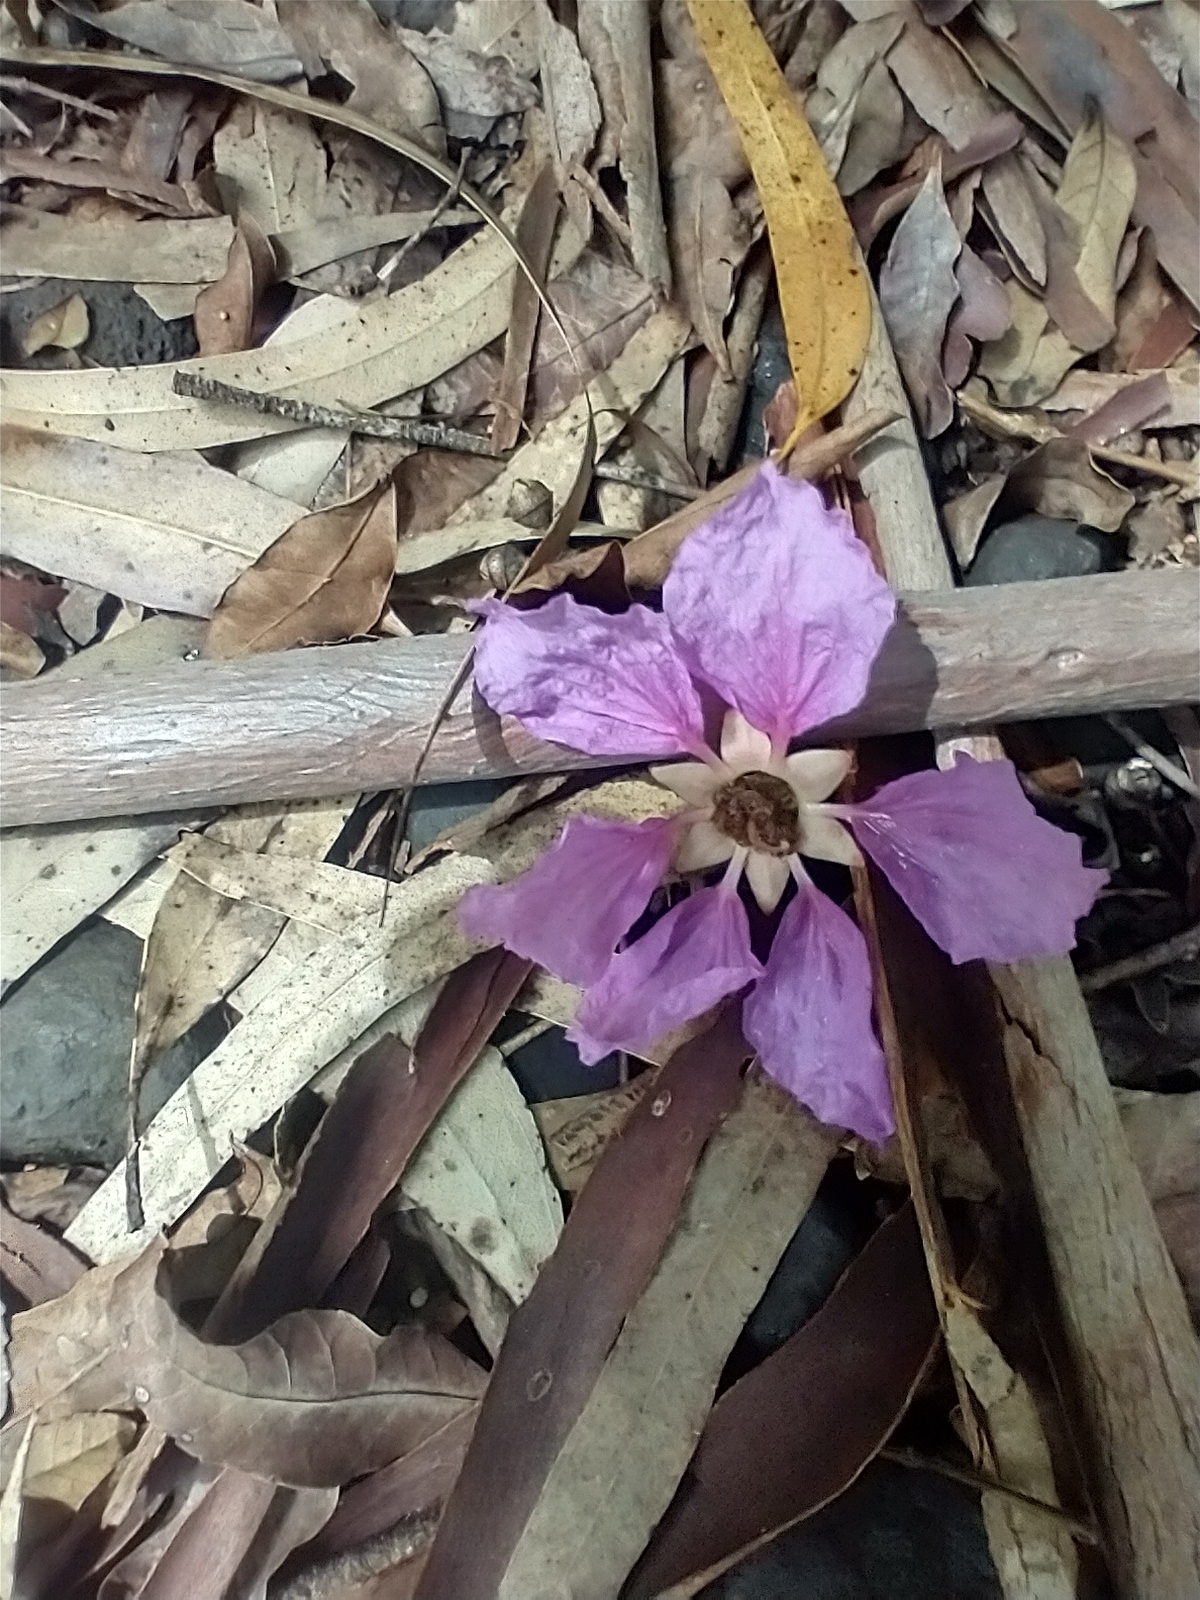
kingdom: Plantae
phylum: Tracheophyta
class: Magnoliopsida
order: Myrtales
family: Lythraceae
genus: Lagerstroemia
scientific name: Lagerstroemia speciosa
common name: Queen's crape-myrtle
